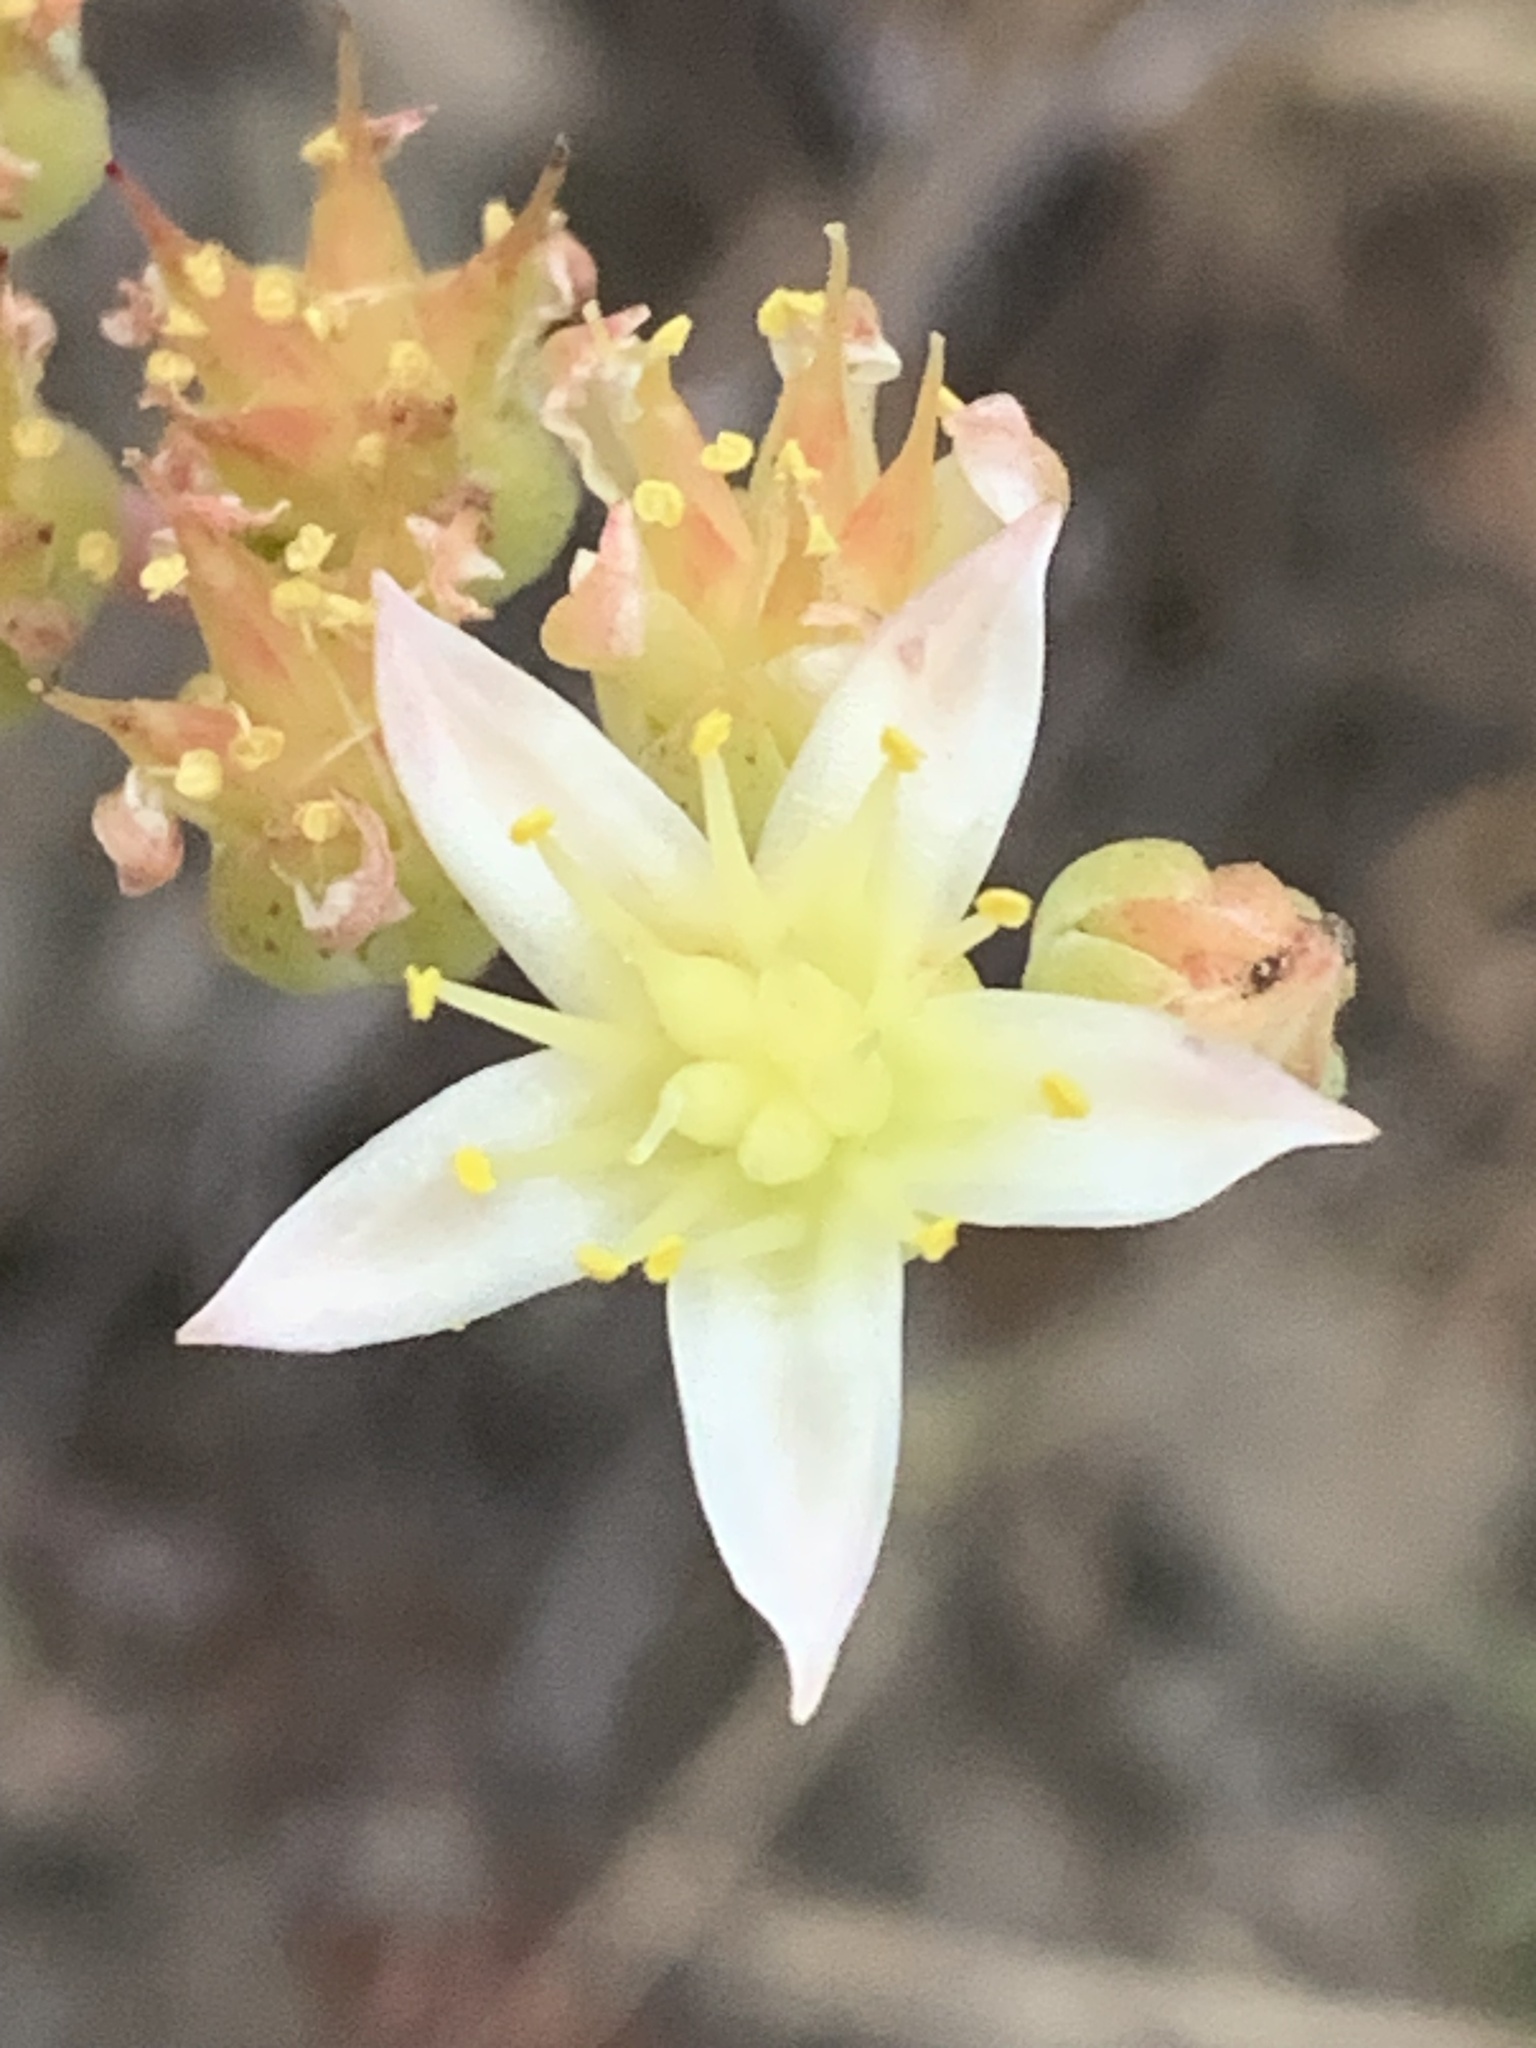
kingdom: Plantae
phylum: Tracheophyta
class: Magnoliopsida
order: Saxifragales
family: Crassulaceae
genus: Dudleya
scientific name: Dudleya virens
